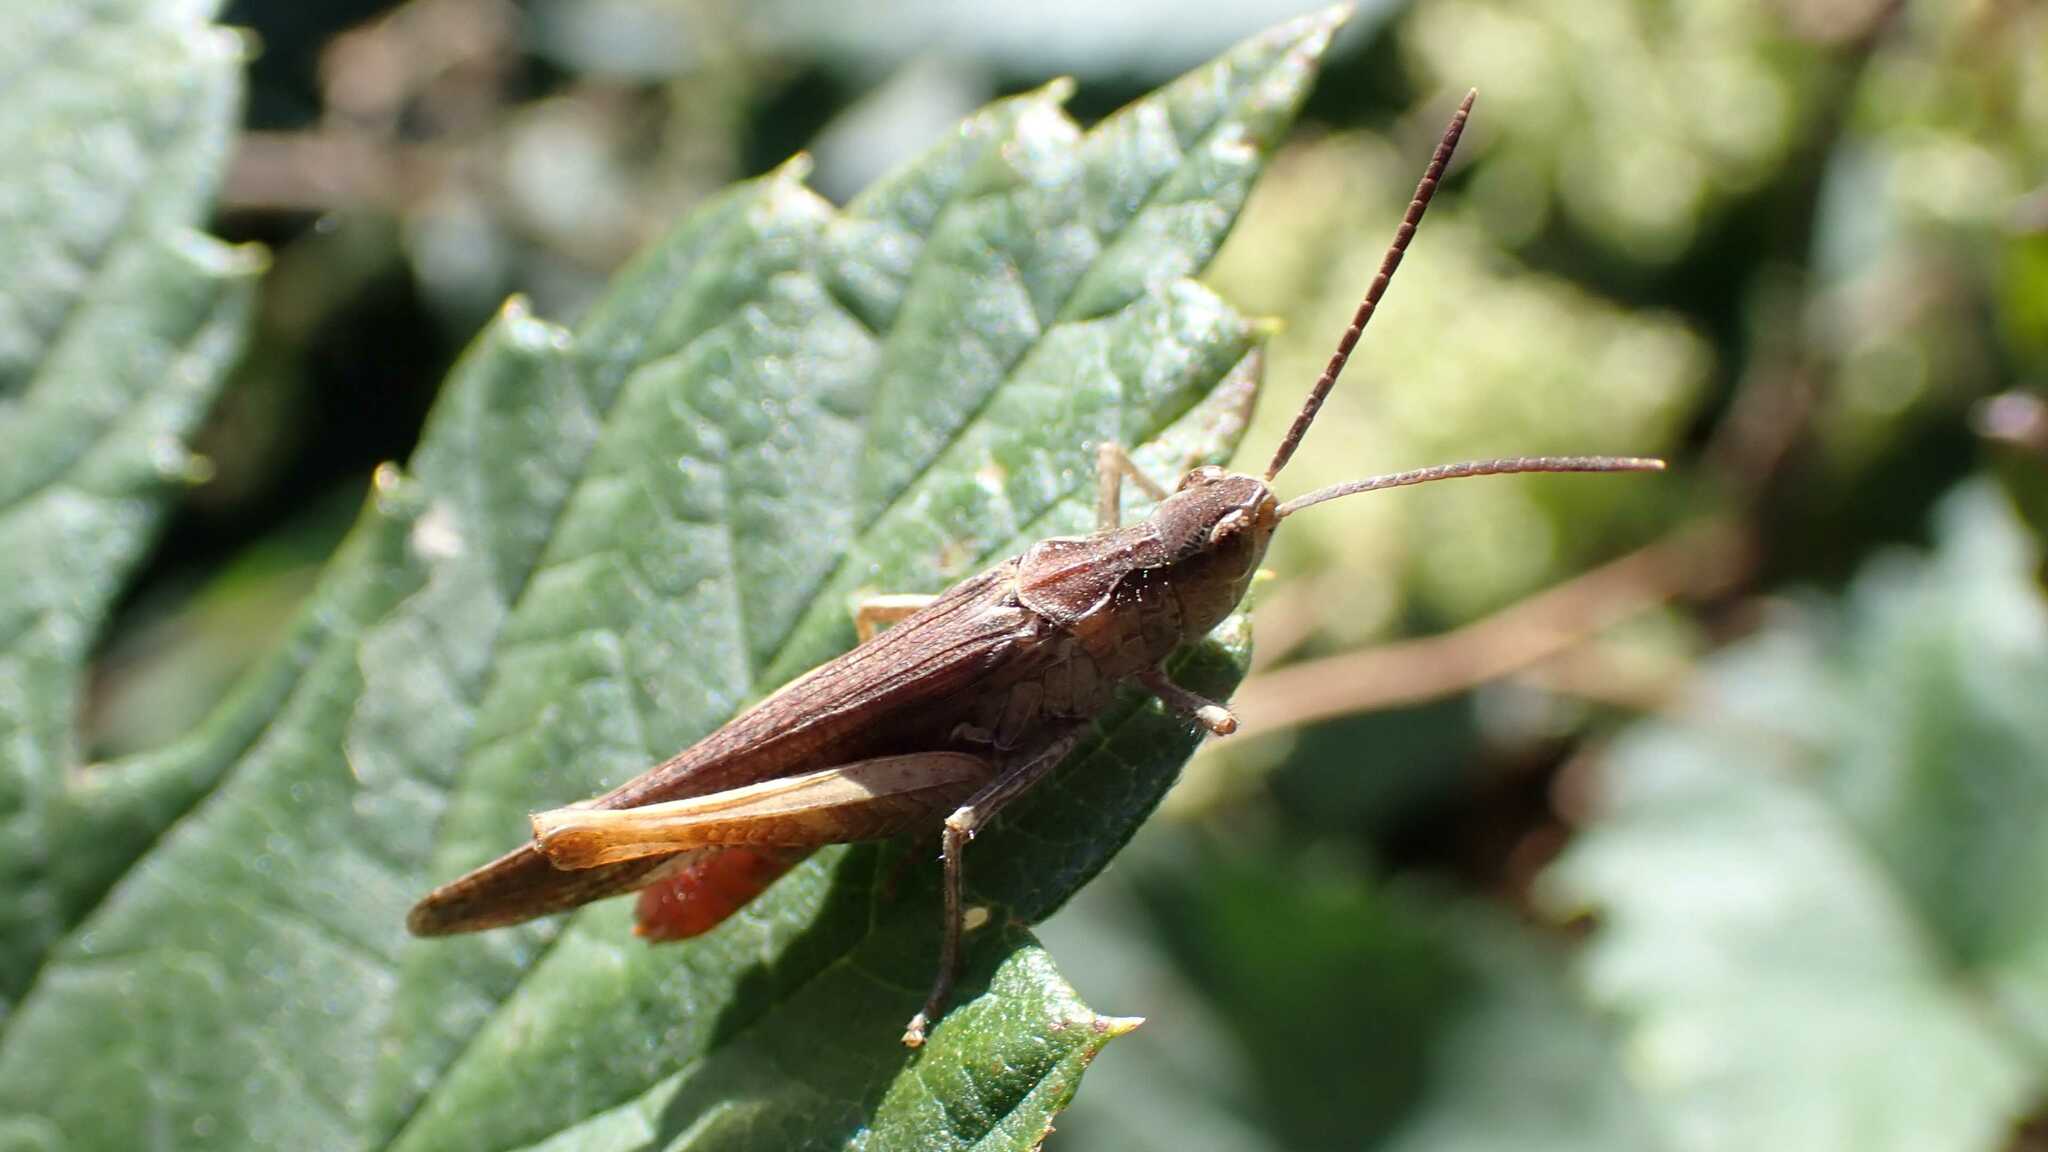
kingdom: Animalia
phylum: Arthropoda
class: Insecta
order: Orthoptera
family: Acrididae
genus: Glyptobothrus
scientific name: Glyptobothrus
